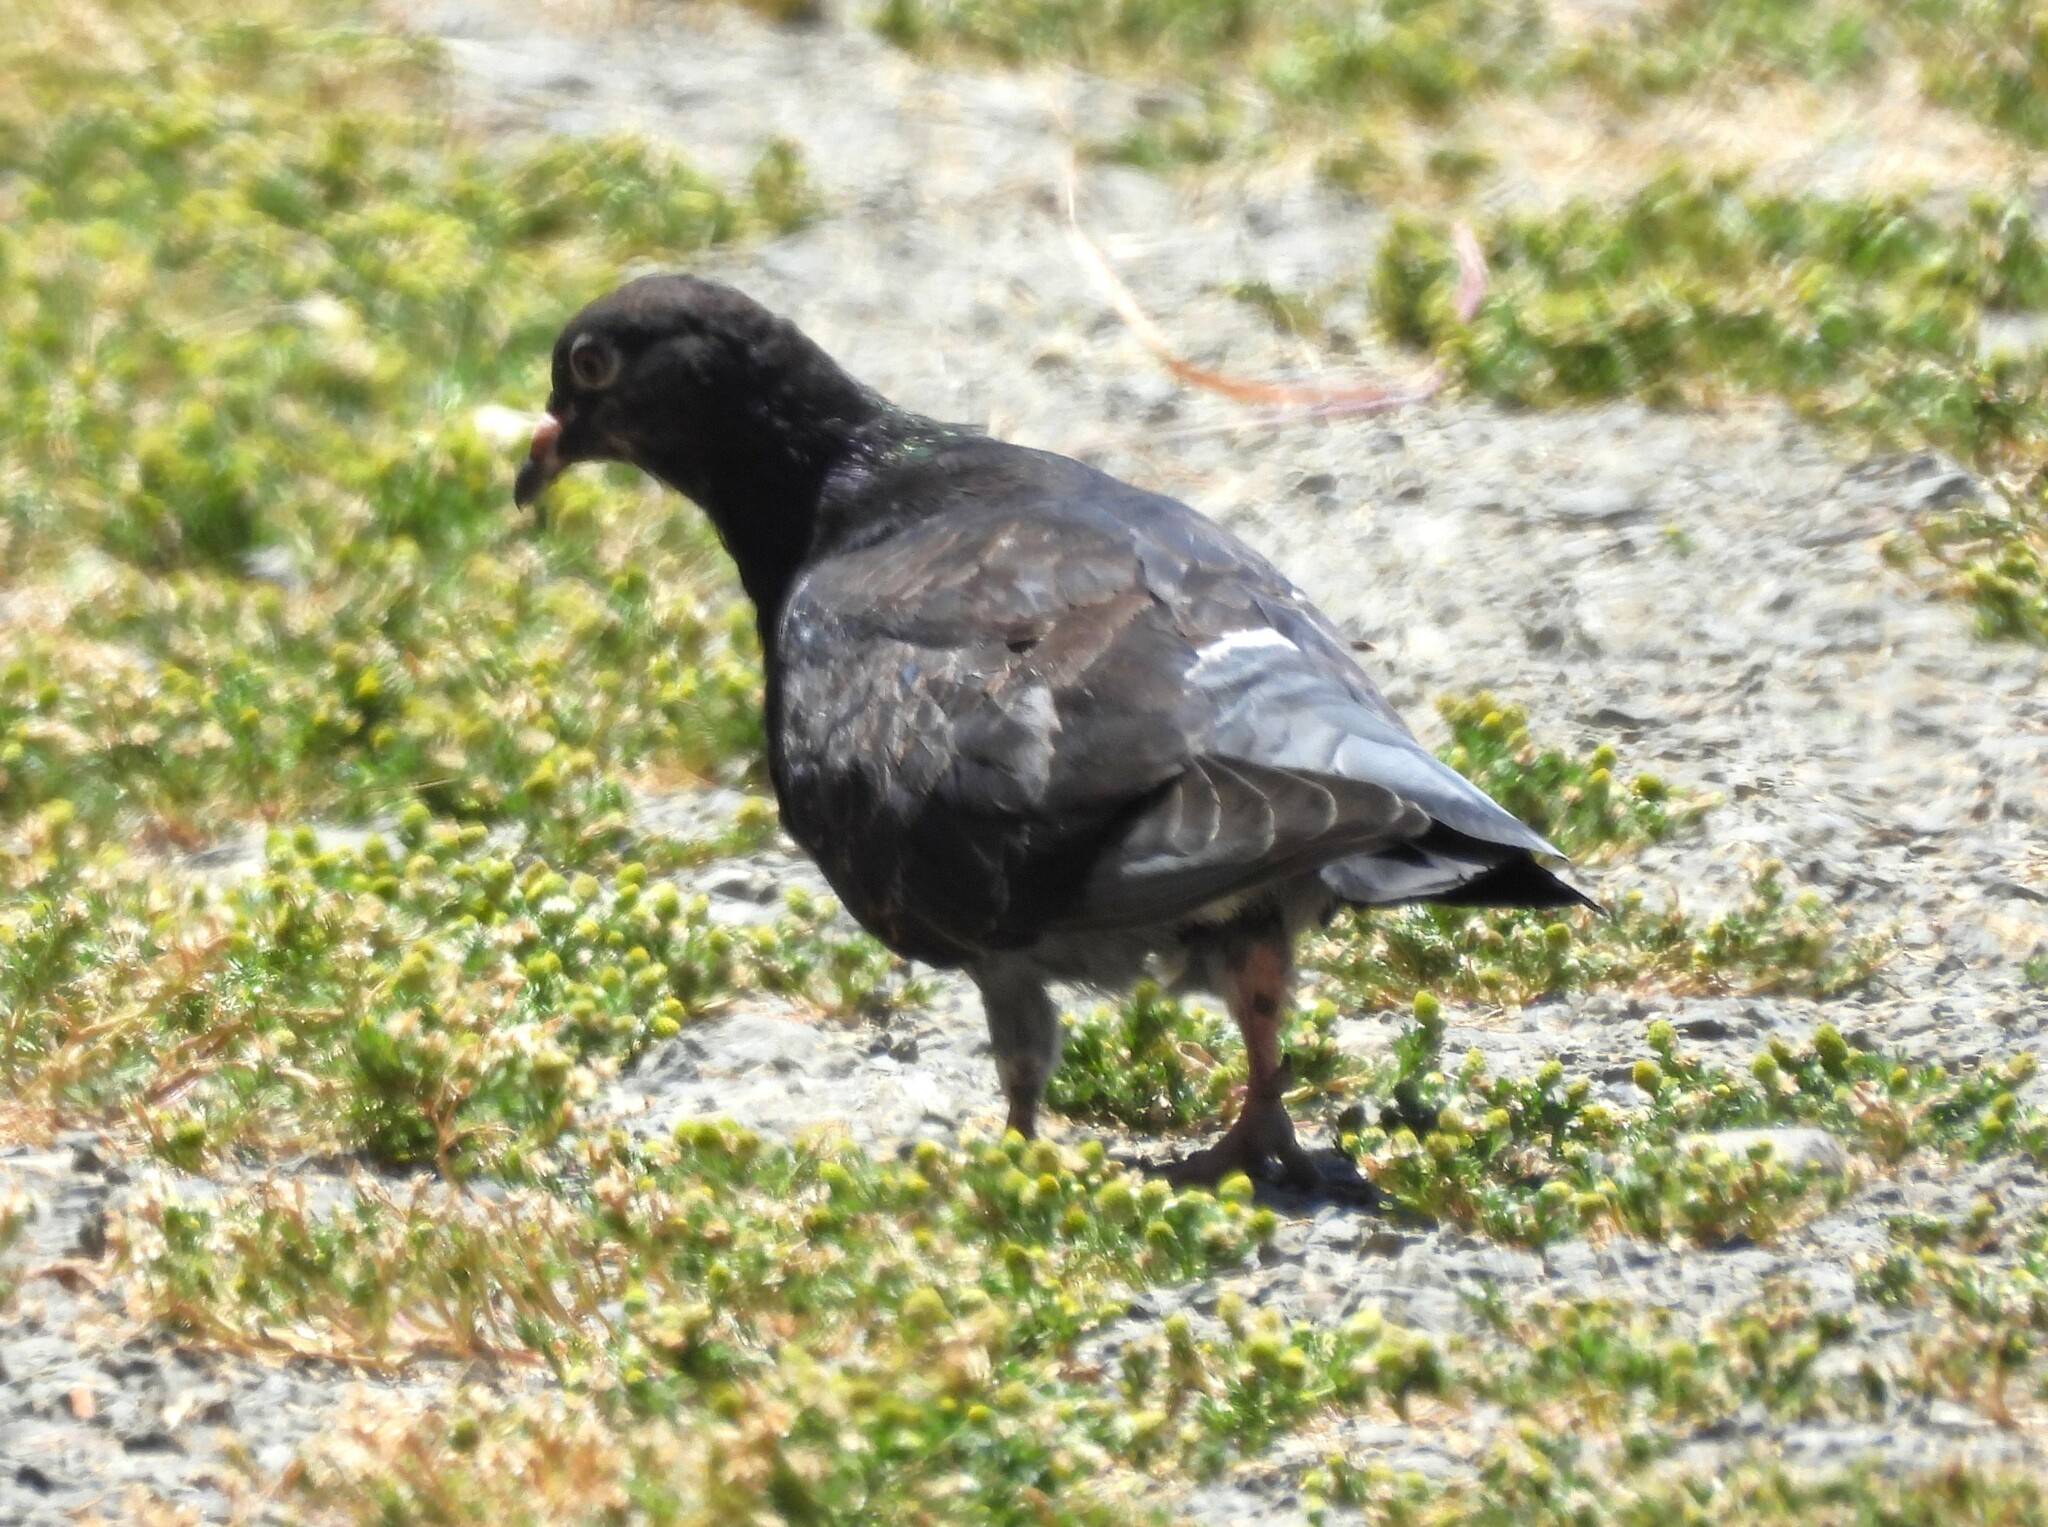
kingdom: Animalia
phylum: Chordata
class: Aves
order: Columbiformes
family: Columbidae
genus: Columba
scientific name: Columba livia
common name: Rock pigeon
